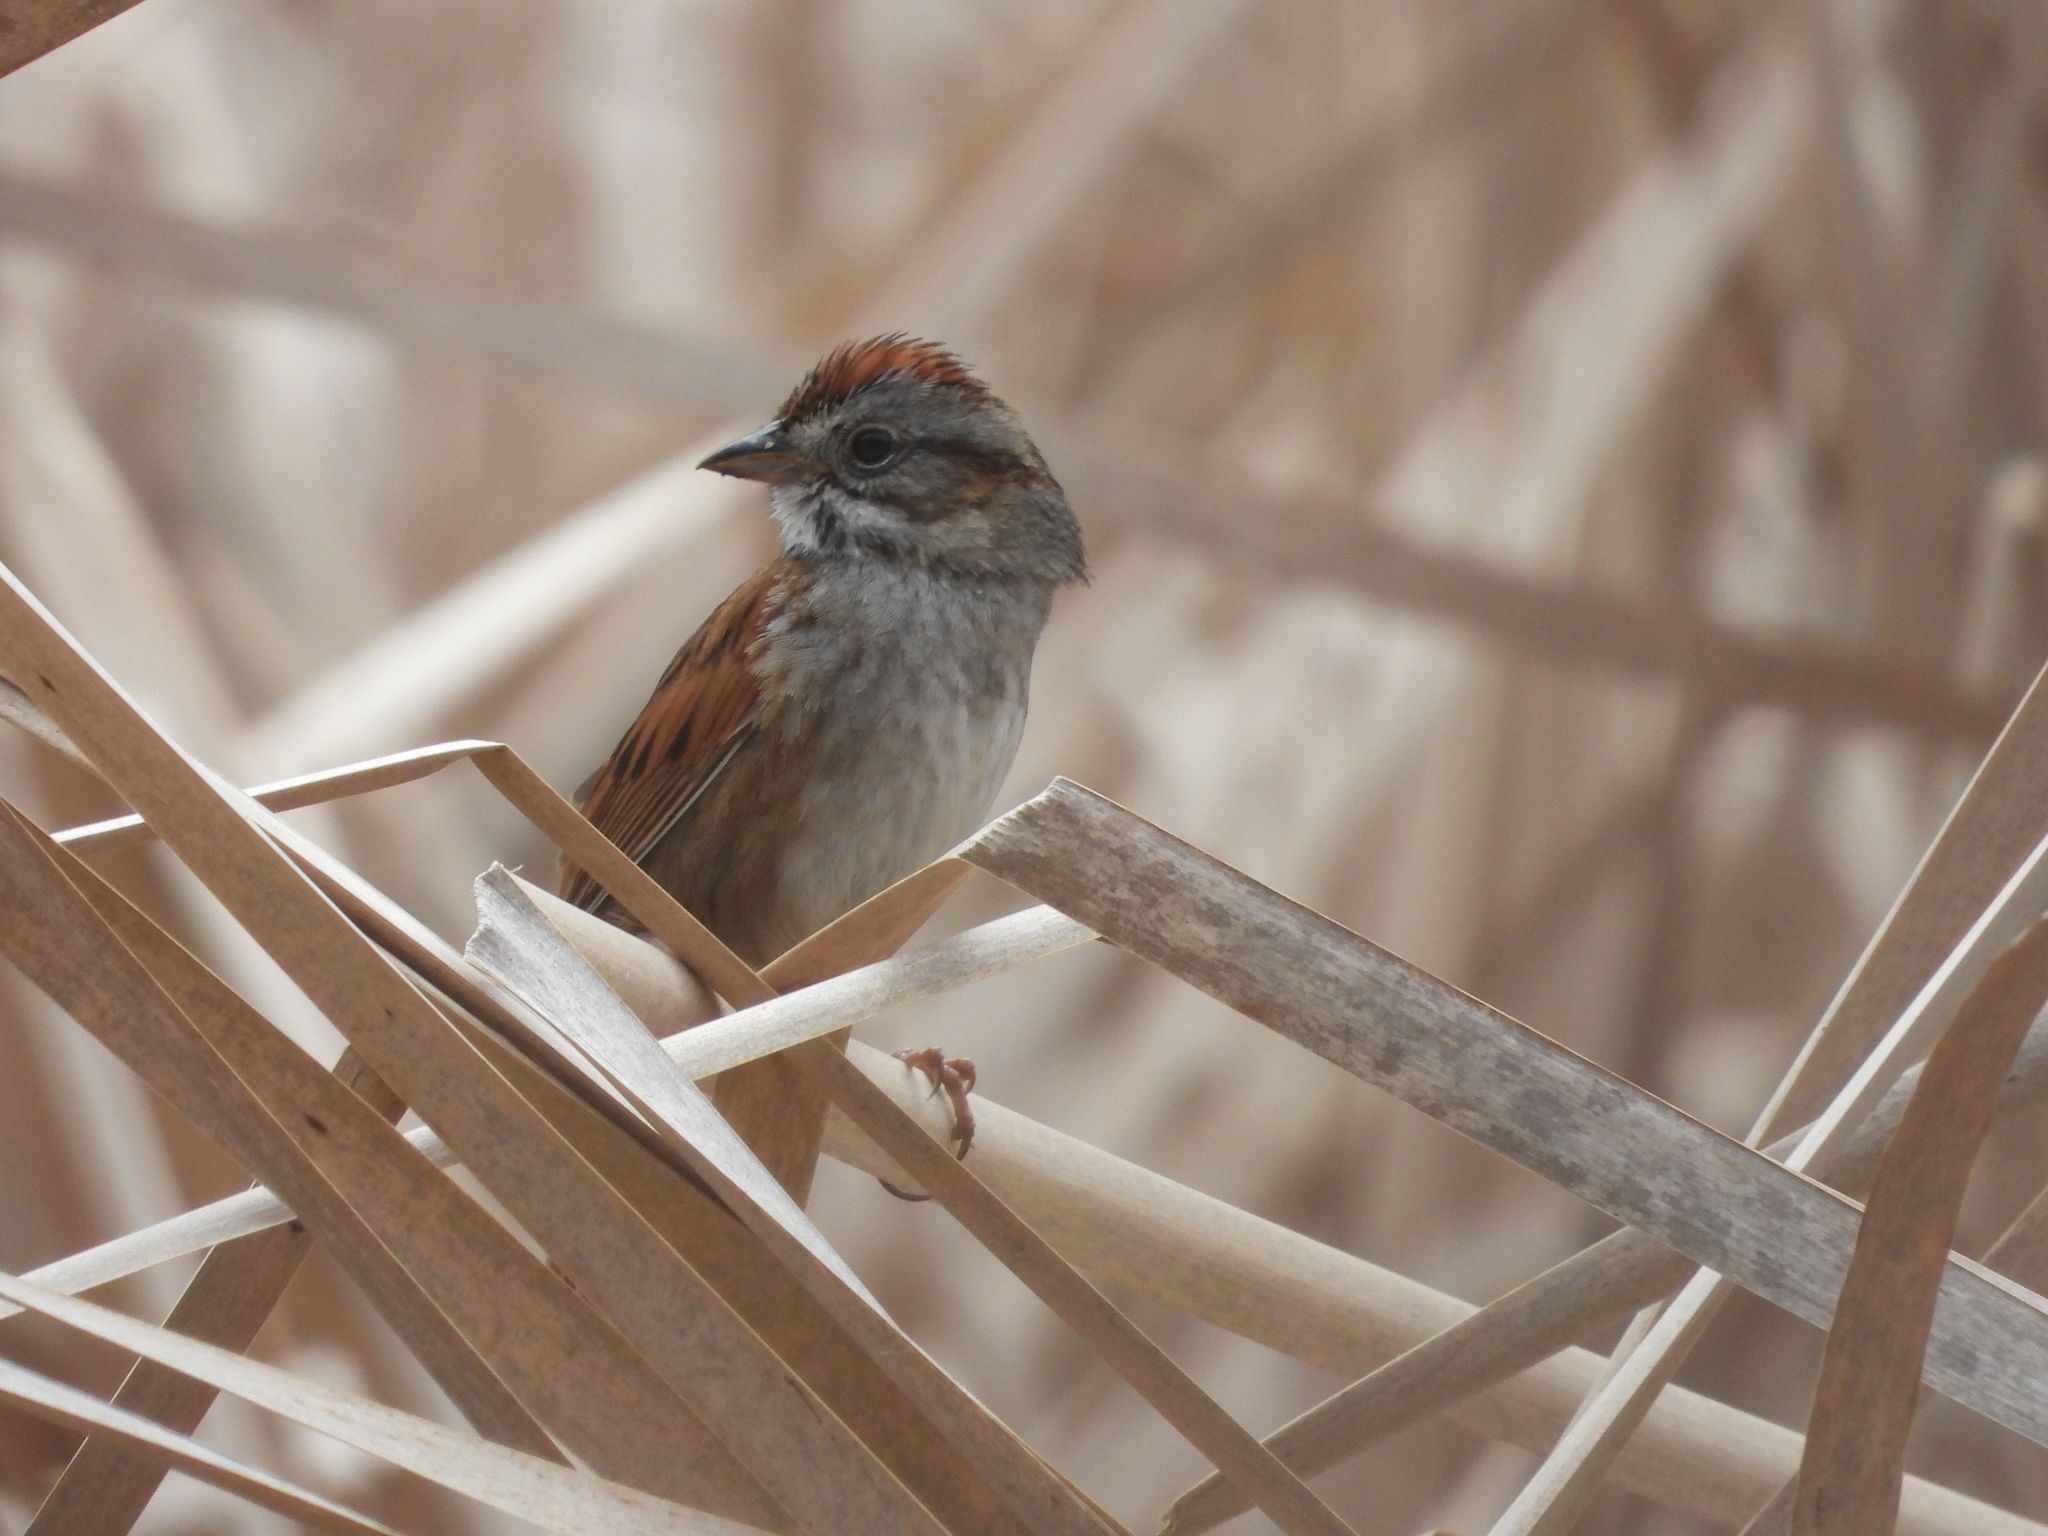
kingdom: Animalia
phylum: Chordata
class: Aves
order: Passeriformes
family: Passerellidae
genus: Melospiza
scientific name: Melospiza georgiana
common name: Swamp sparrow
